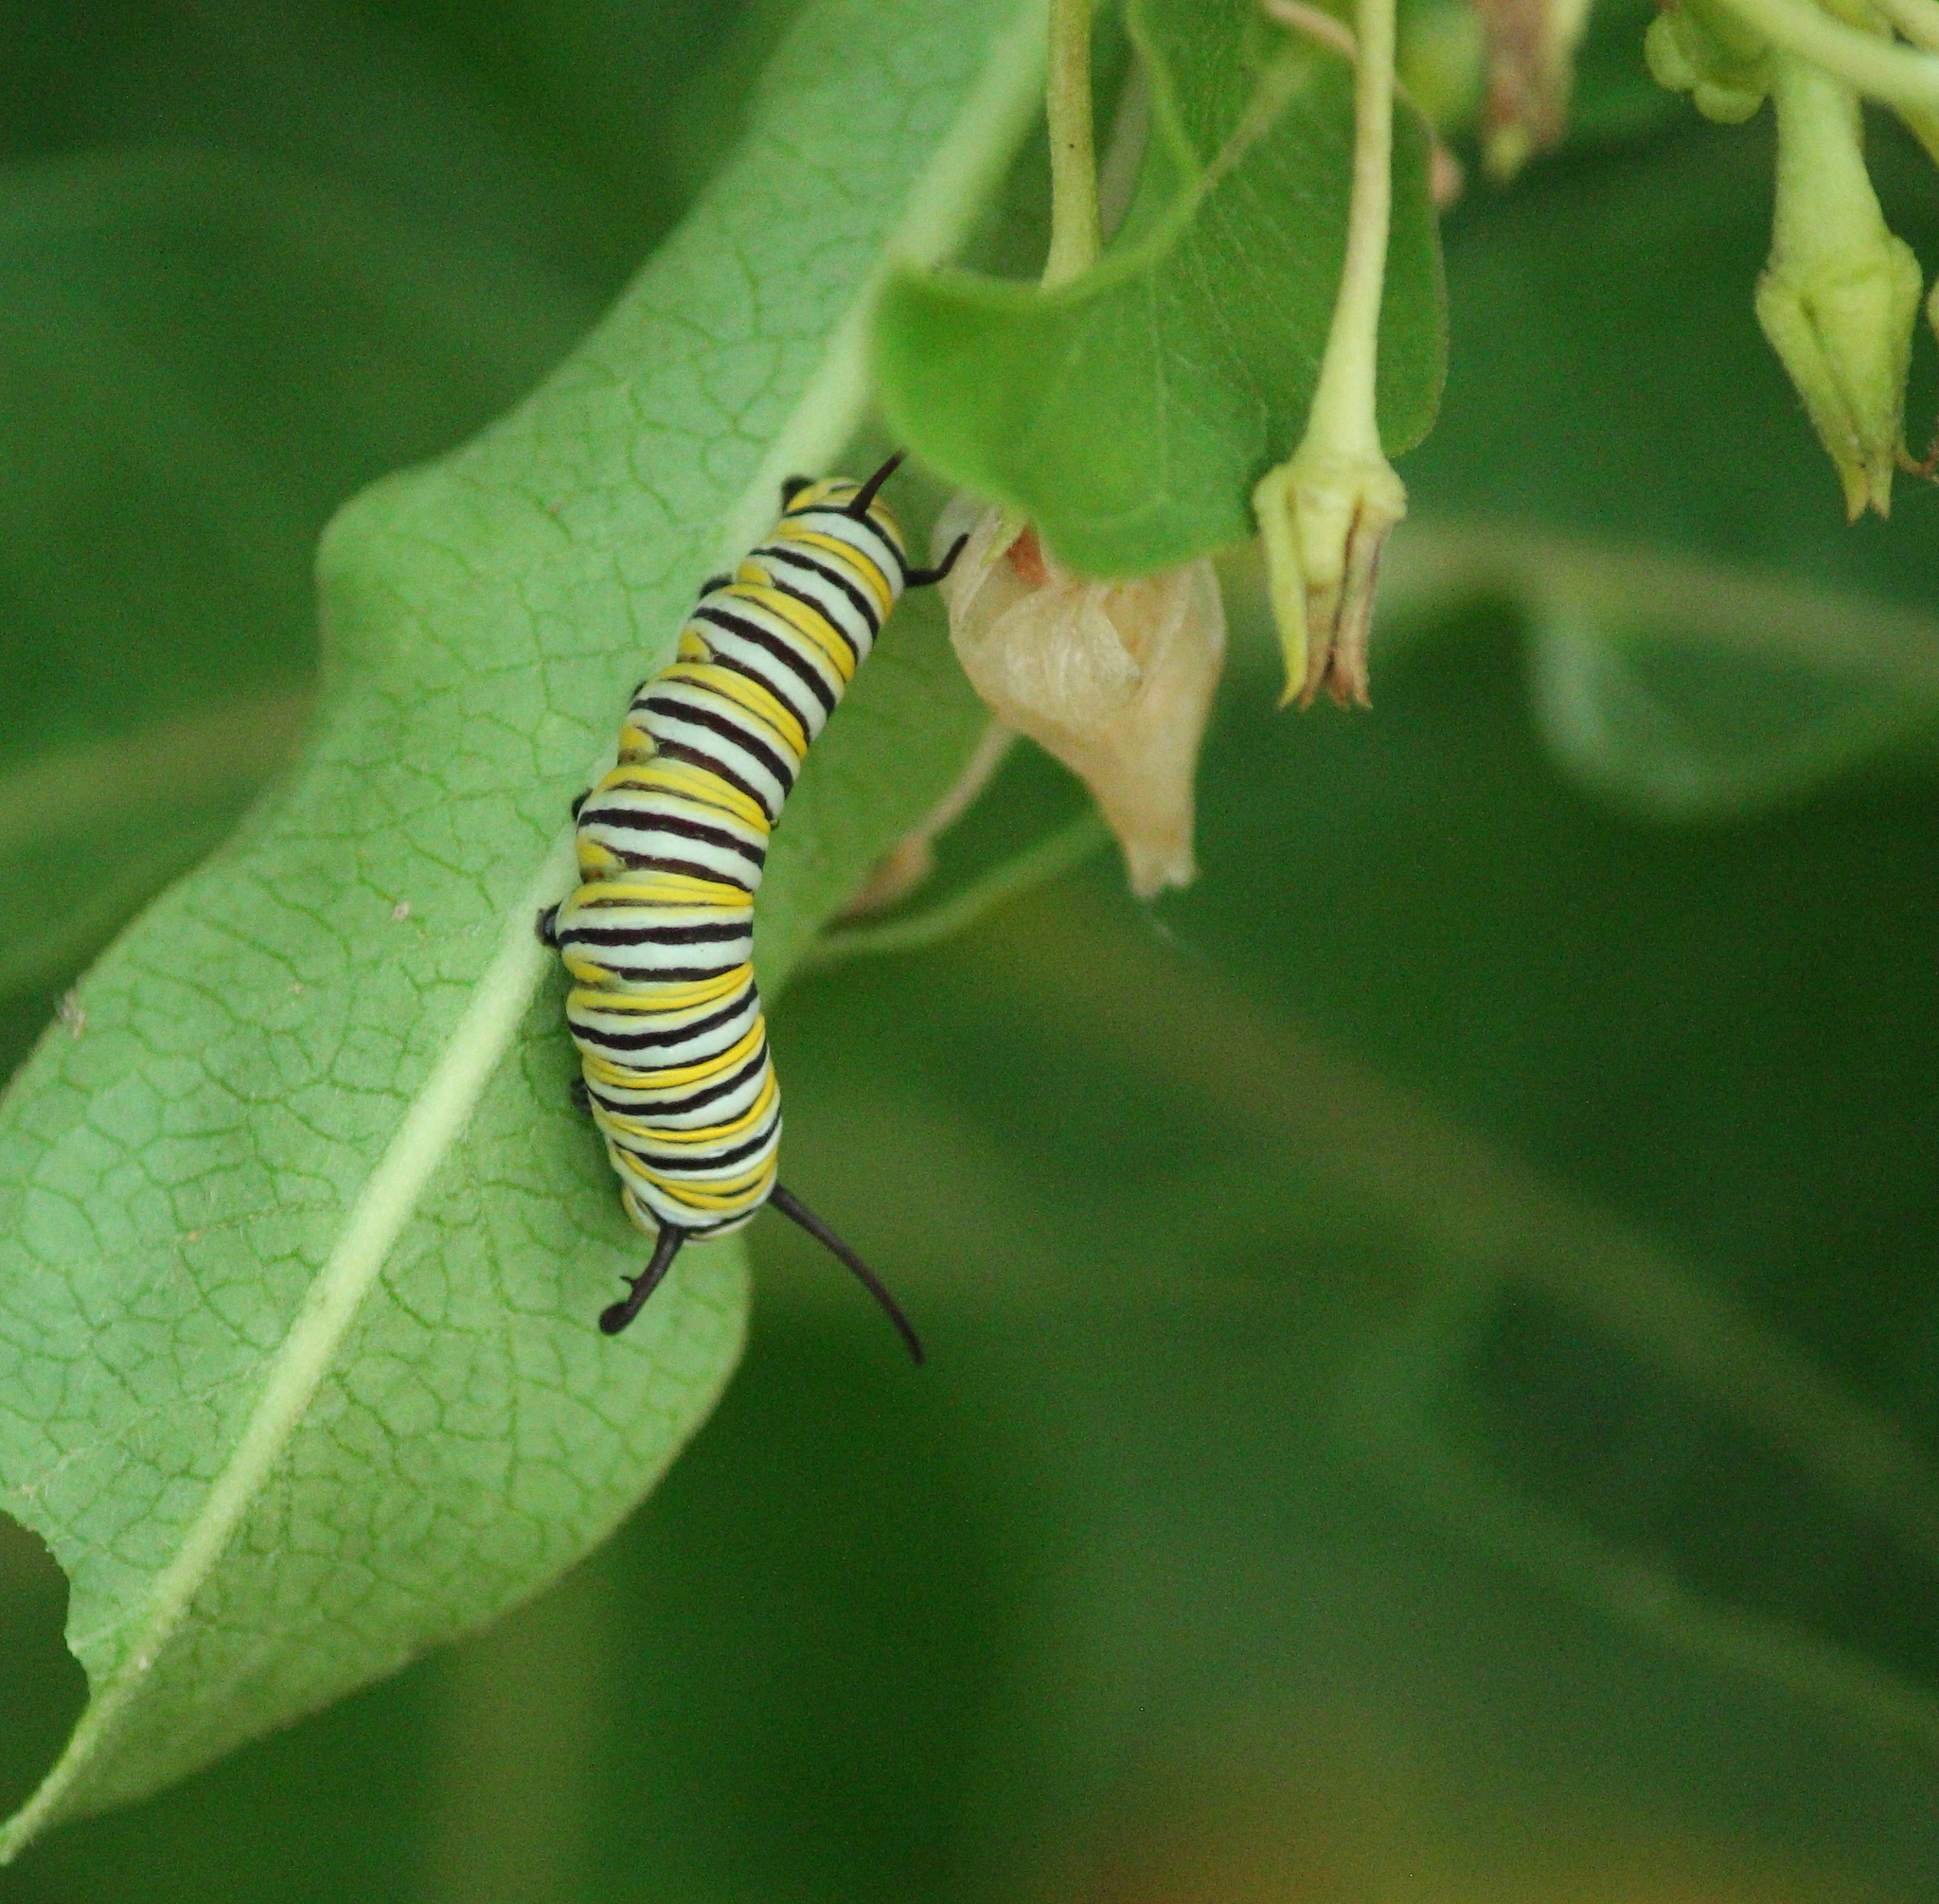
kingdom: Animalia
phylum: Arthropoda
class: Insecta
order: Lepidoptera
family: Nymphalidae
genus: Danaus
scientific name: Danaus plexippus
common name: Monarch
